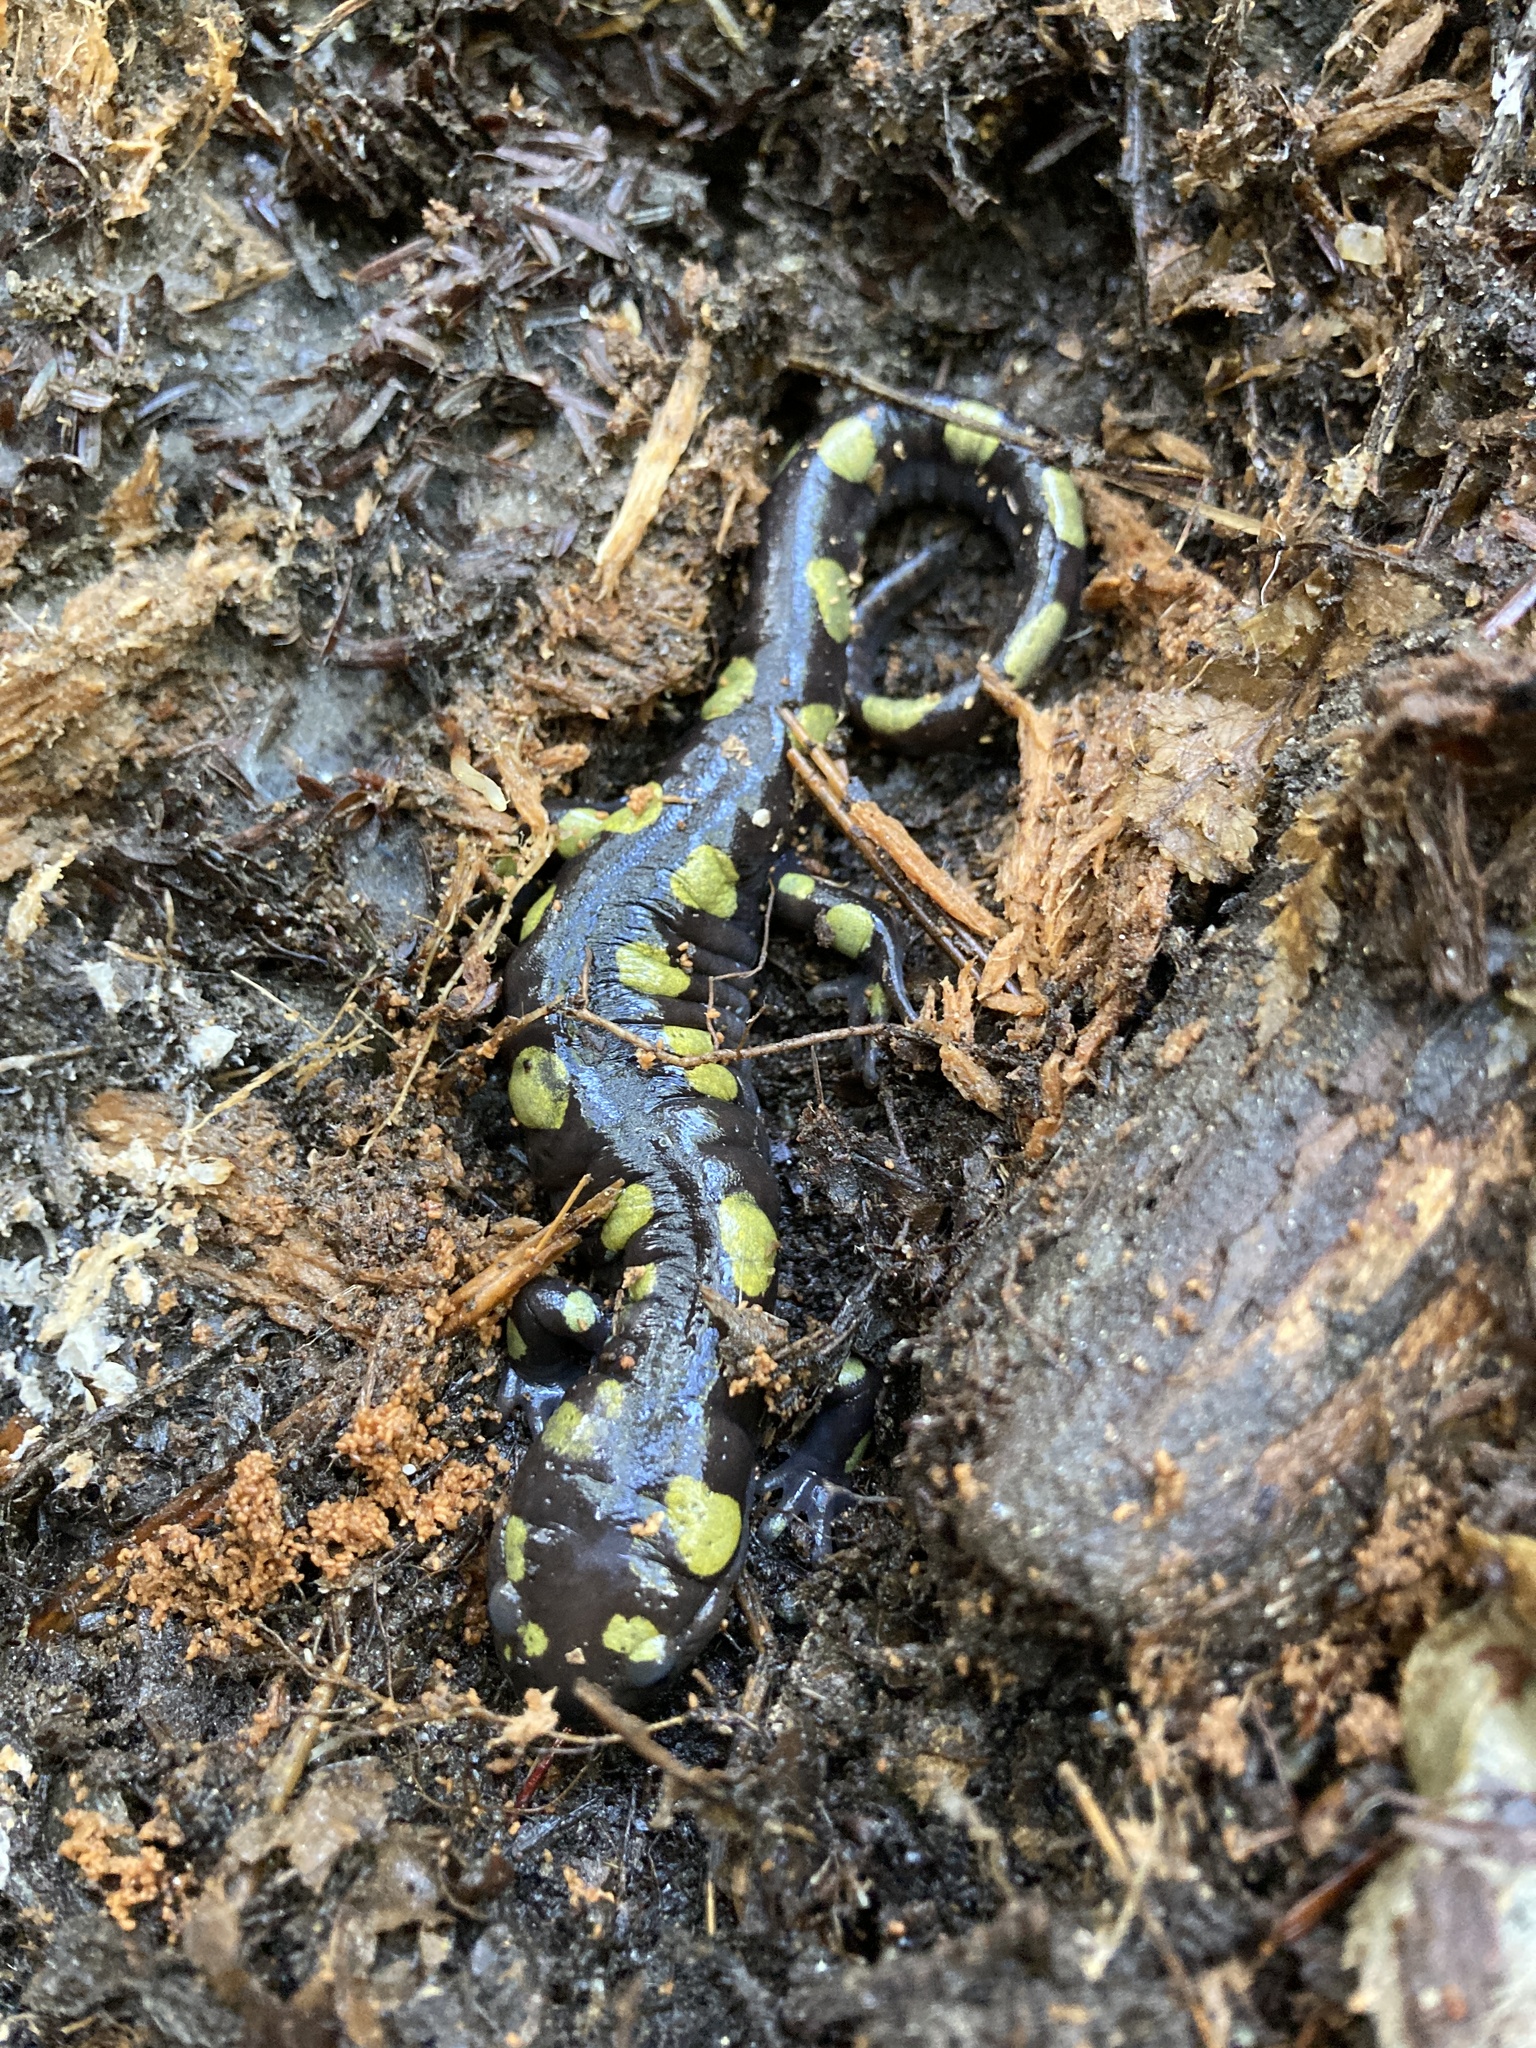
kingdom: Animalia
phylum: Chordata
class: Amphibia
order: Caudata
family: Ambystomatidae
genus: Ambystoma
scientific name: Ambystoma maculatum
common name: Spotted salamander
